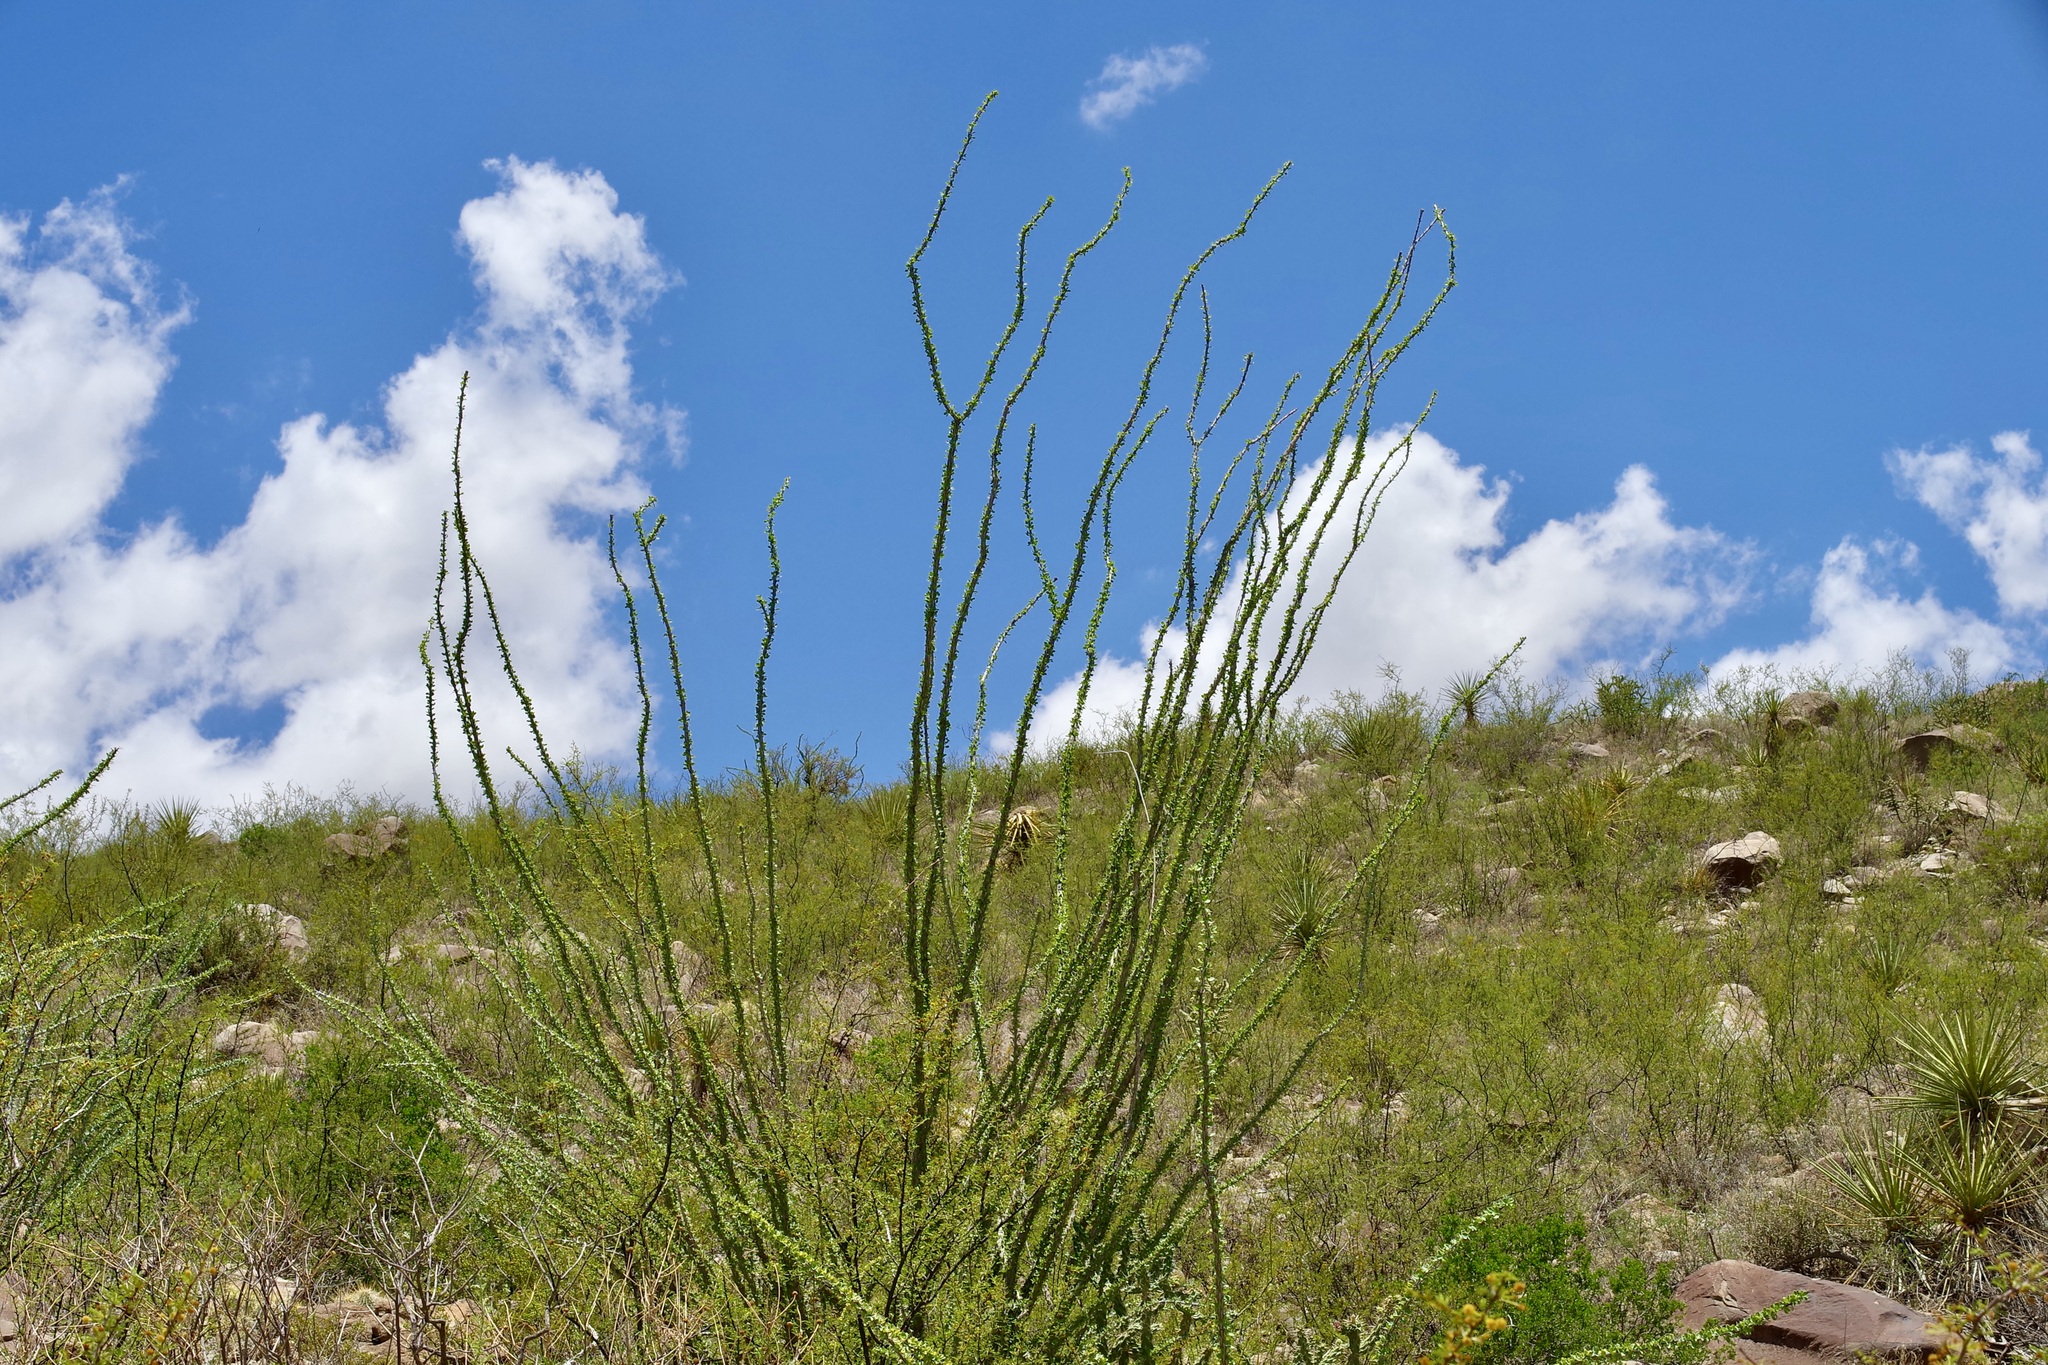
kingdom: Plantae
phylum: Tracheophyta
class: Magnoliopsida
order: Ericales
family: Fouquieriaceae
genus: Fouquieria
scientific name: Fouquieria splendens
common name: Vine-cactus
